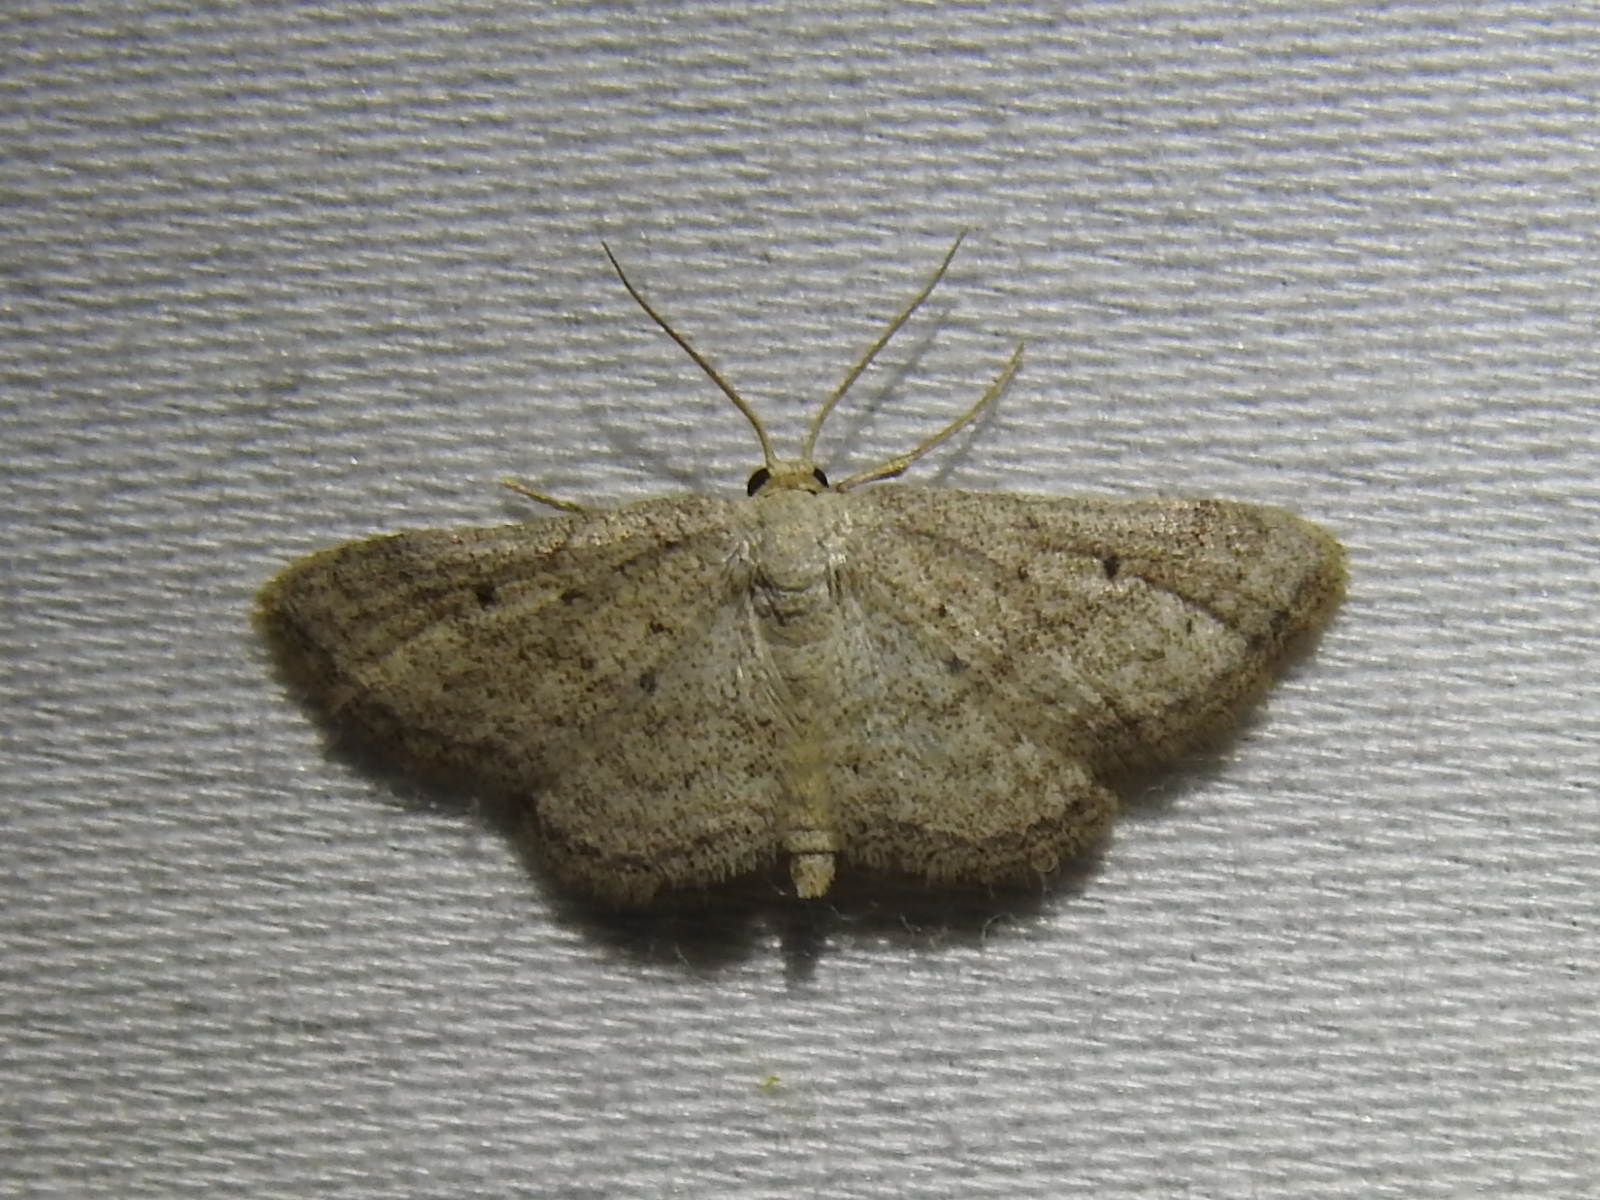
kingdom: Animalia
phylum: Arthropoda
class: Insecta
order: Lepidoptera
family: Geometridae
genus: Lobocleta
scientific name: Lobocleta ossularia
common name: Drab brown wave
